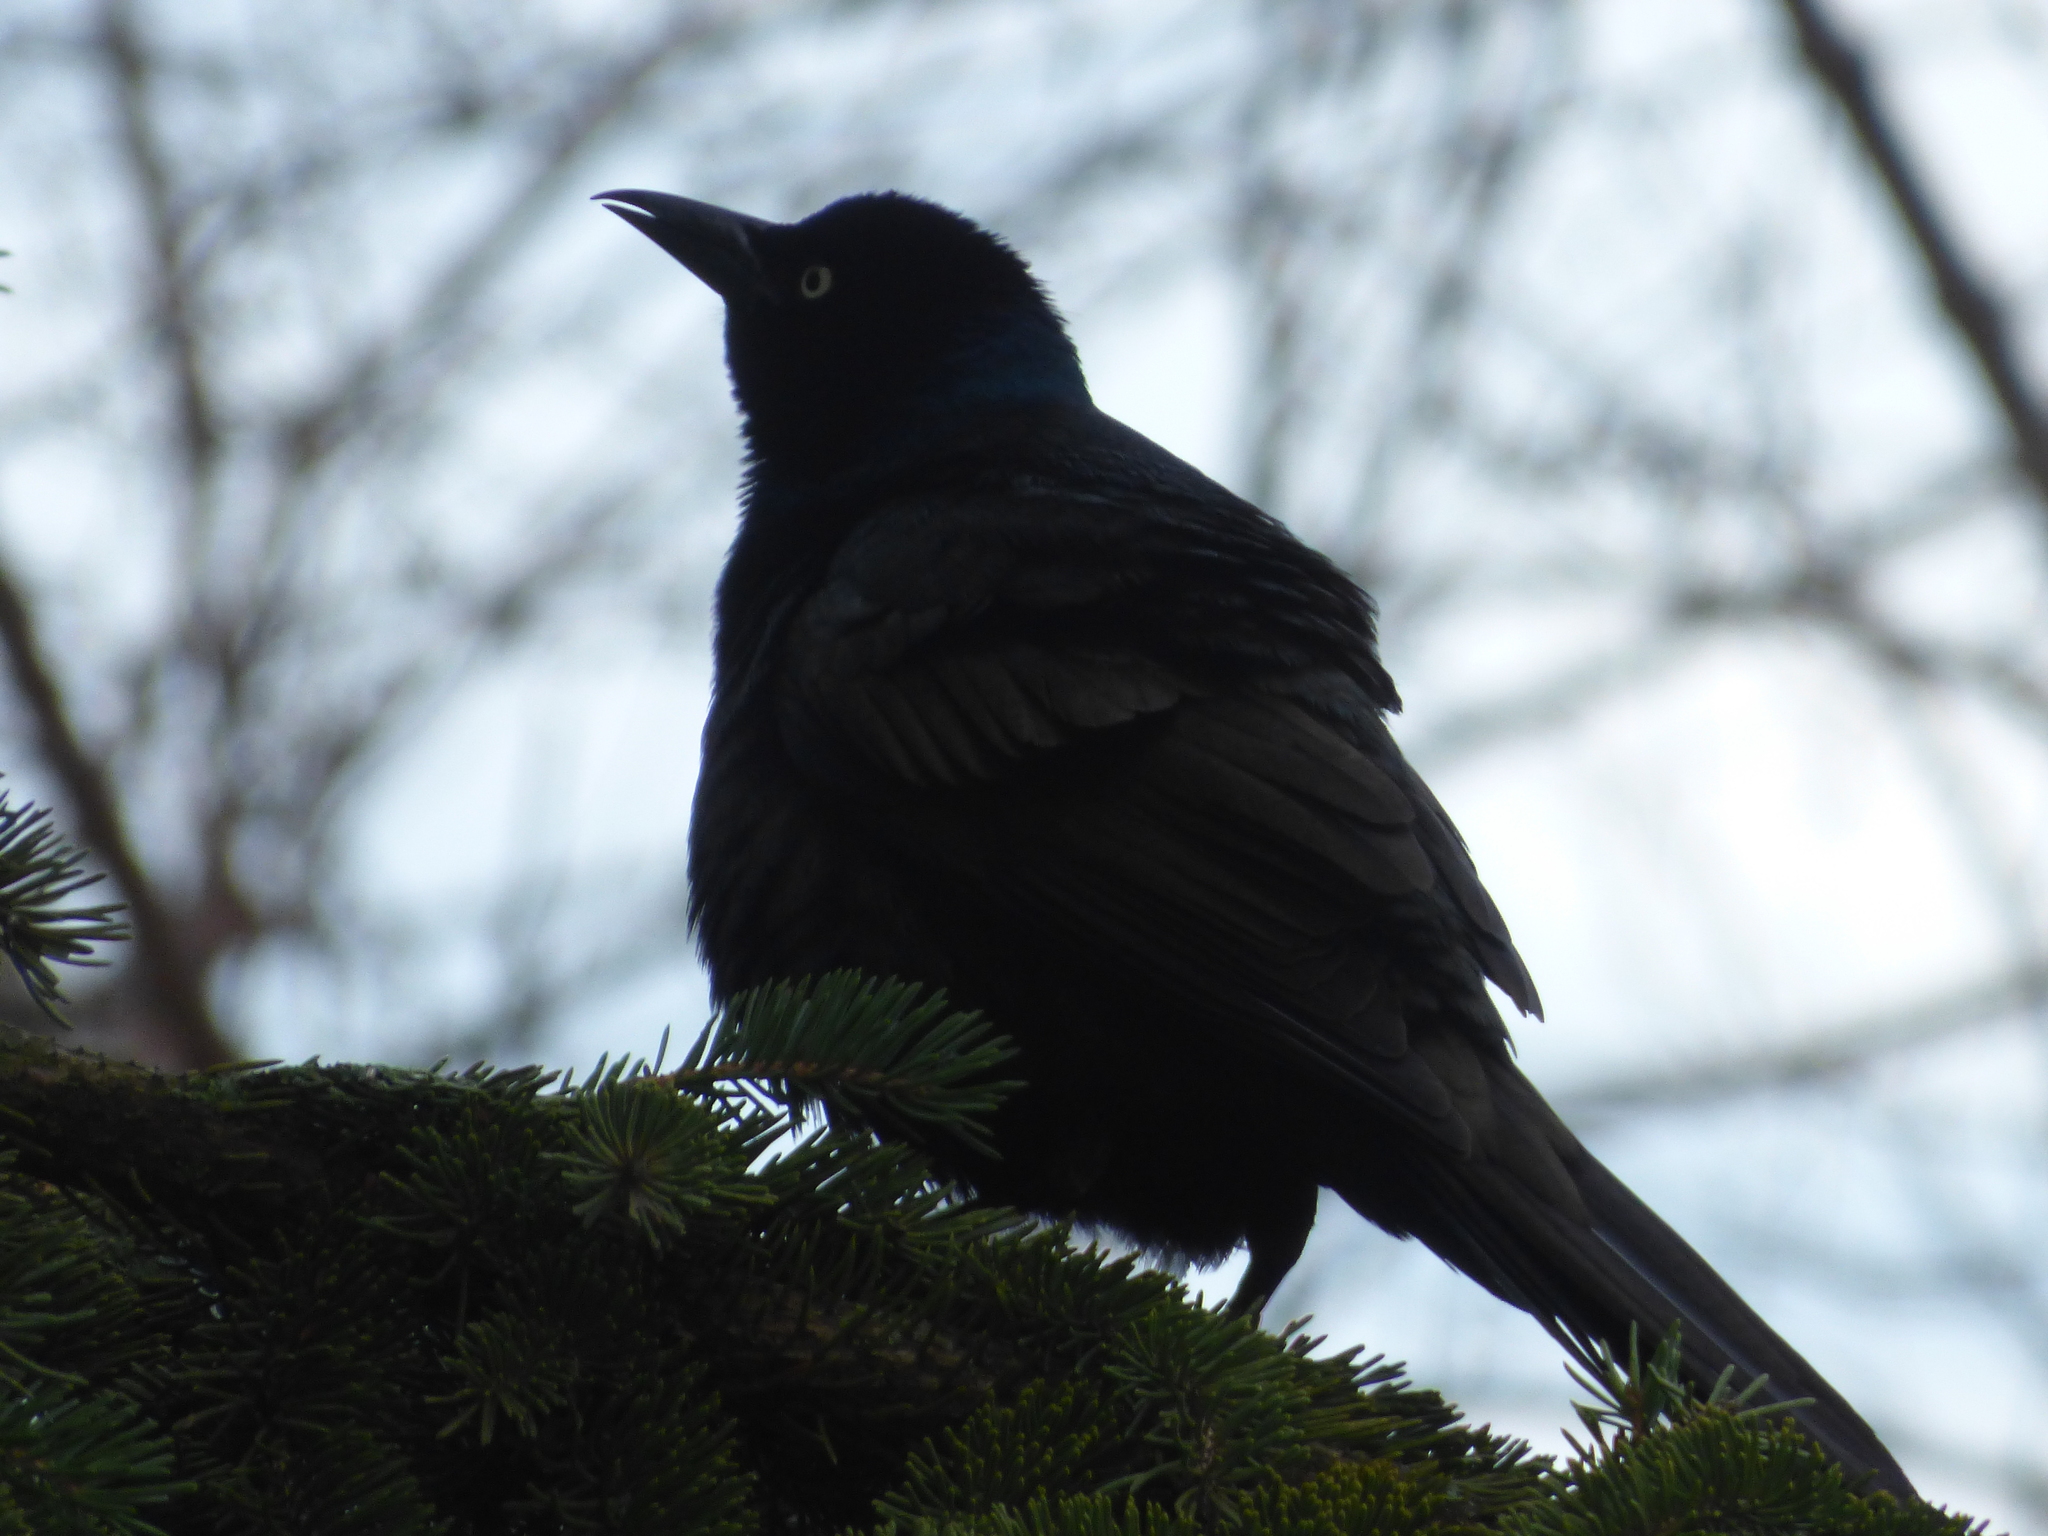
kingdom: Animalia
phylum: Chordata
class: Aves
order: Passeriformes
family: Icteridae
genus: Quiscalus
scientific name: Quiscalus quiscula
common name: Common grackle
